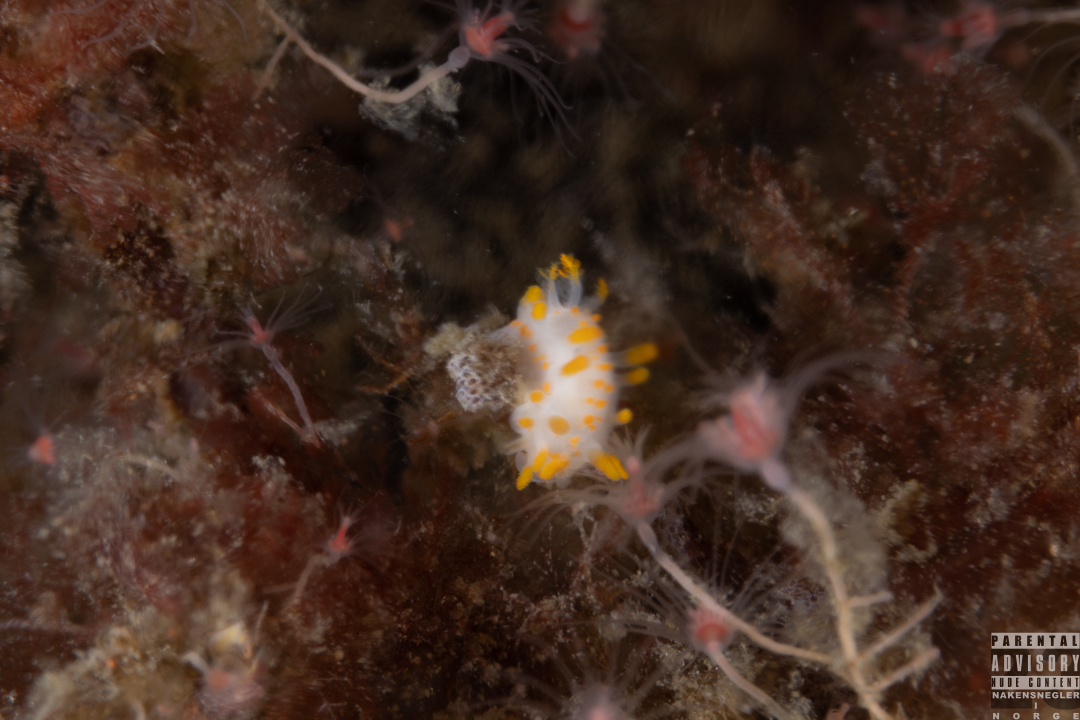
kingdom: Animalia
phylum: Mollusca
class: Gastropoda
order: Nudibranchia
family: Polyceridae
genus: Limacia
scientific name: Limacia clavigera
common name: Orange-clubbed sea slug
